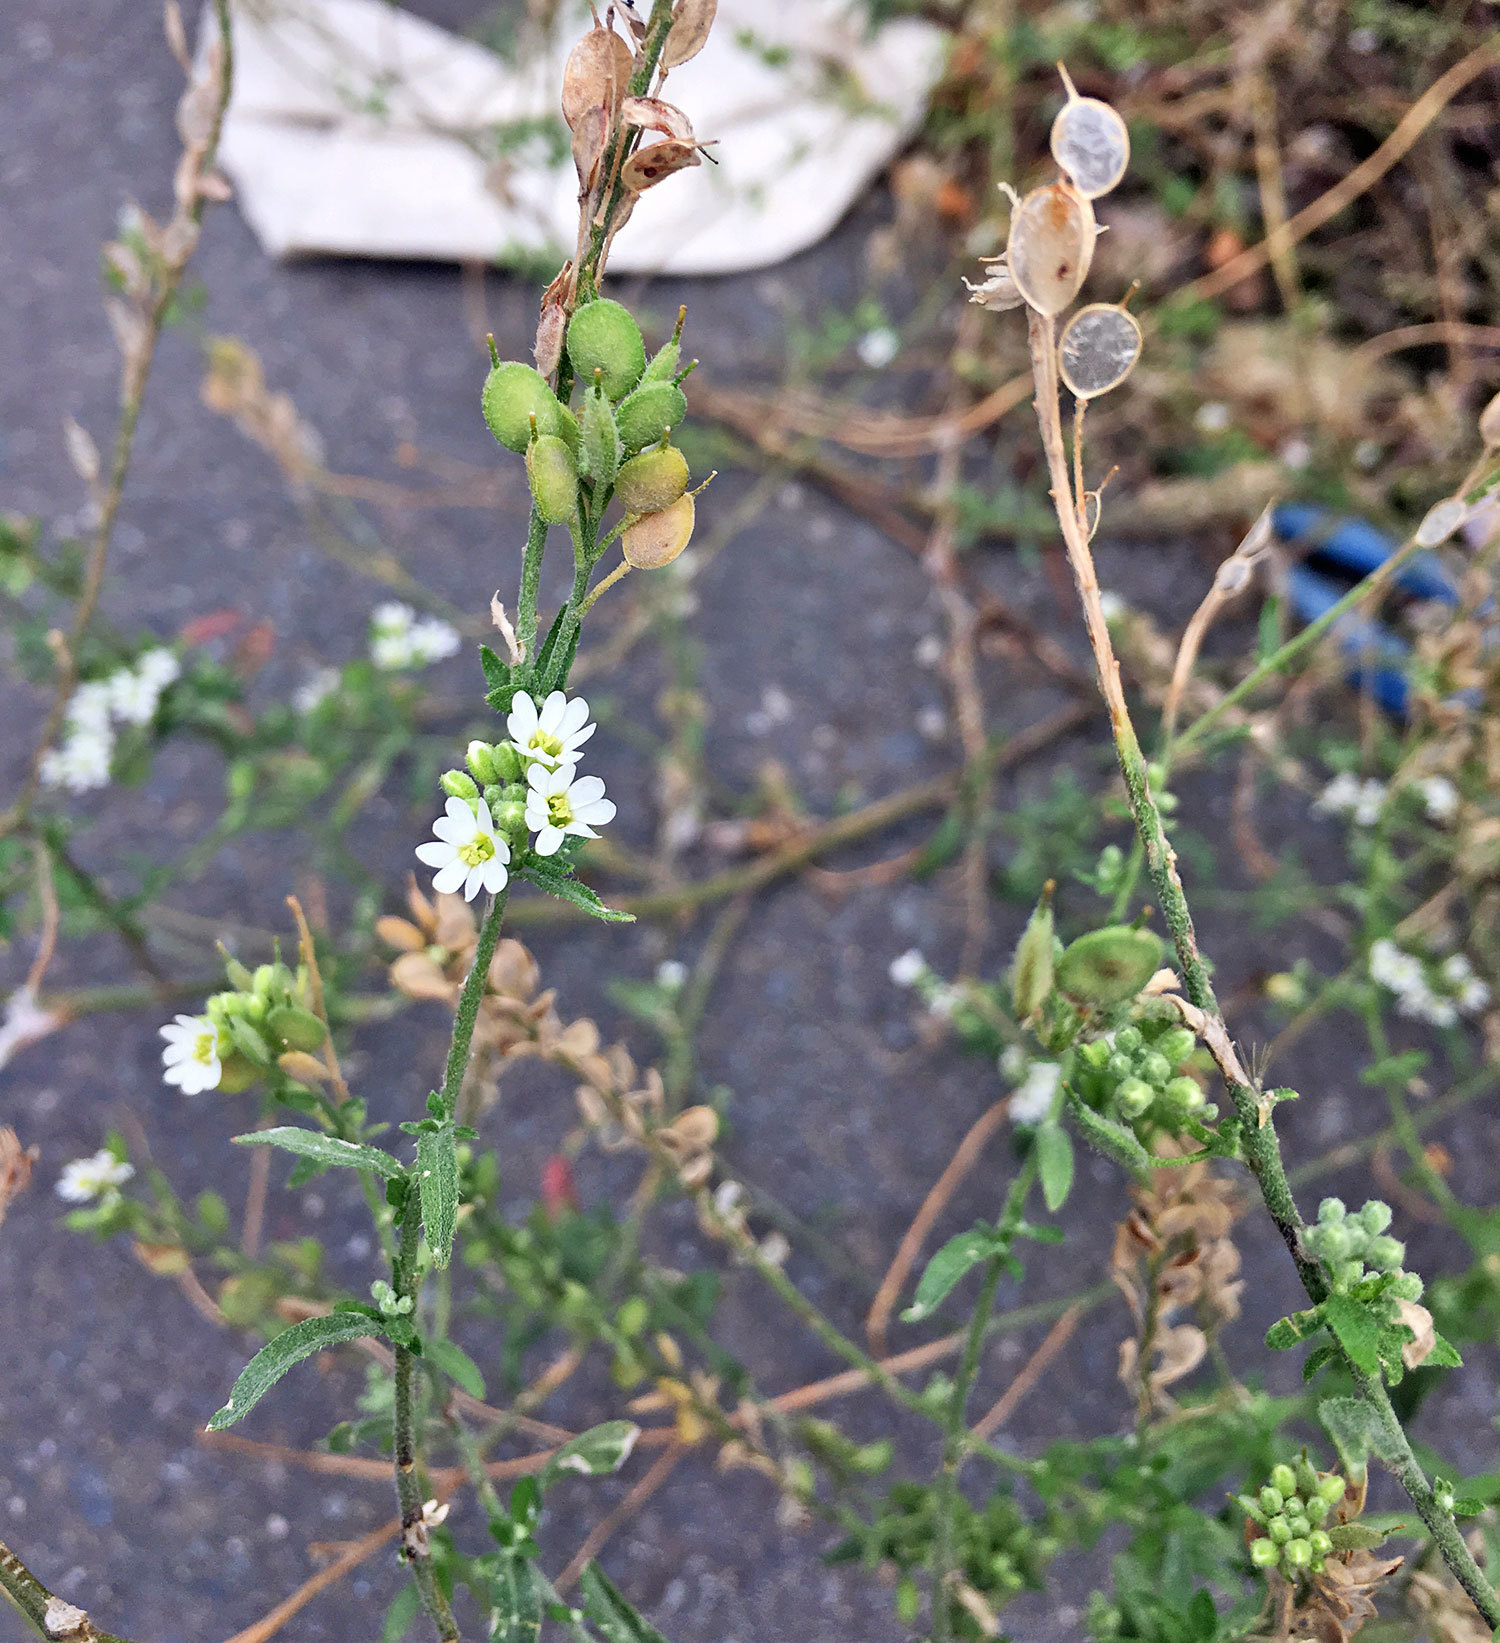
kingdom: Plantae
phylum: Tracheophyta
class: Magnoliopsida
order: Brassicales
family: Brassicaceae
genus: Berteroa
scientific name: Berteroa incana
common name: Hoary alison
